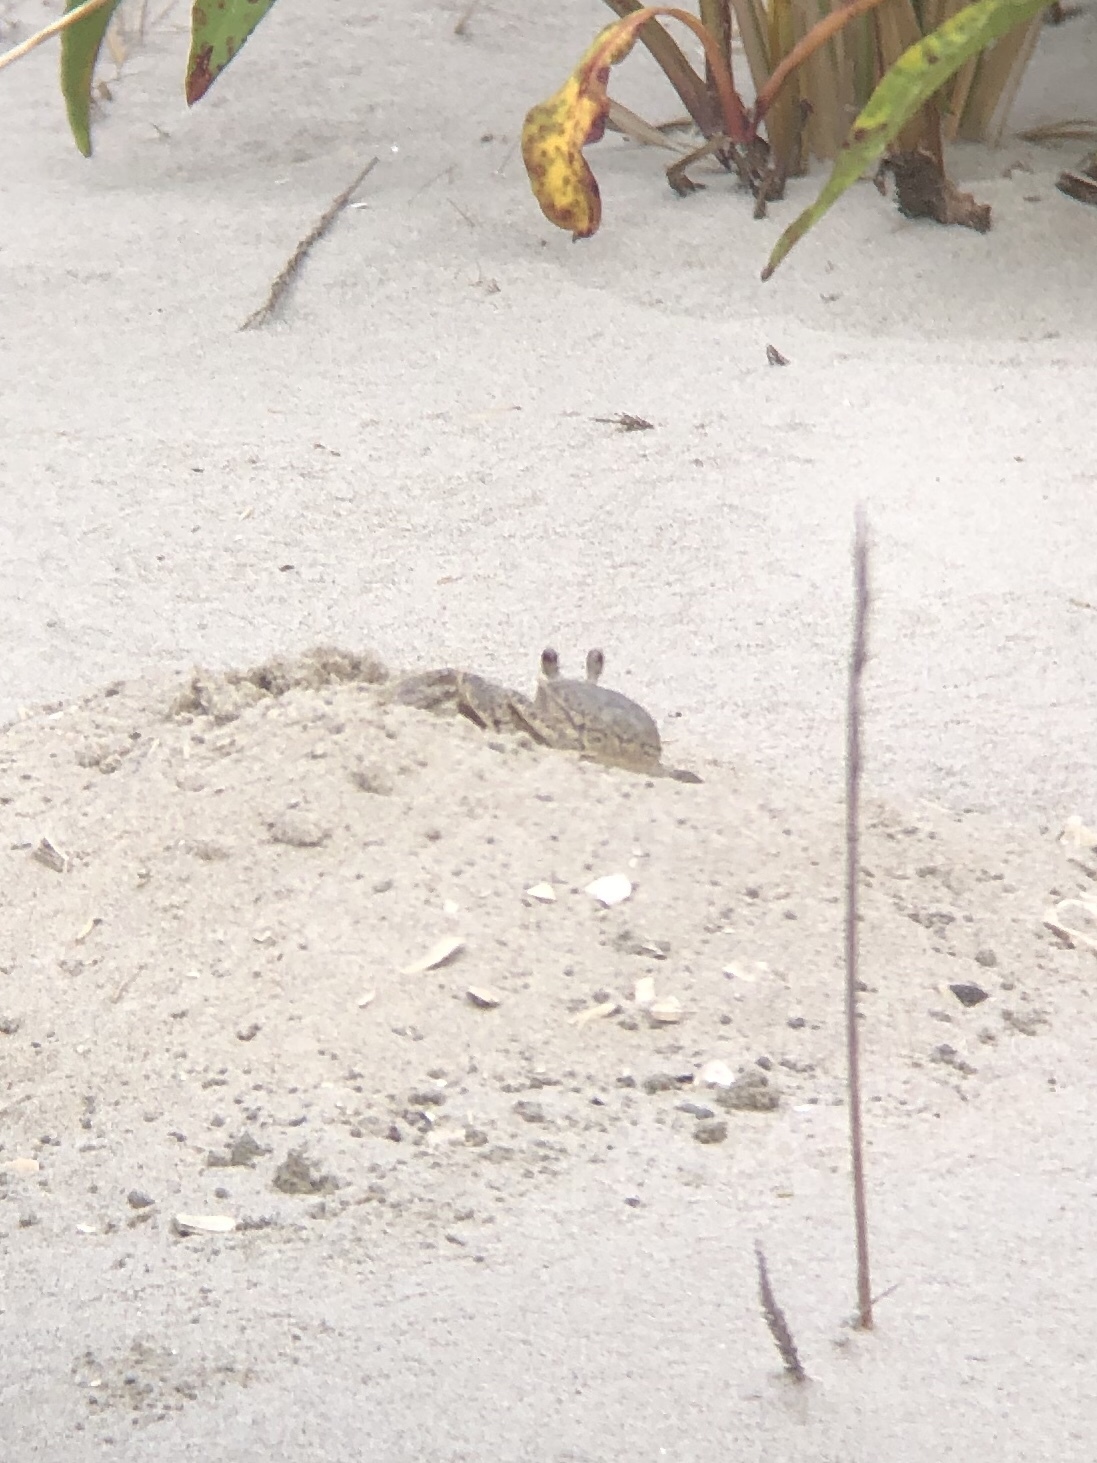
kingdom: Animalia
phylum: Arthropoda
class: Malacostraca
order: Decapoda
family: Ocypodidae
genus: Ocypode
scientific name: Ocypode quadrata
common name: Ghost crab
